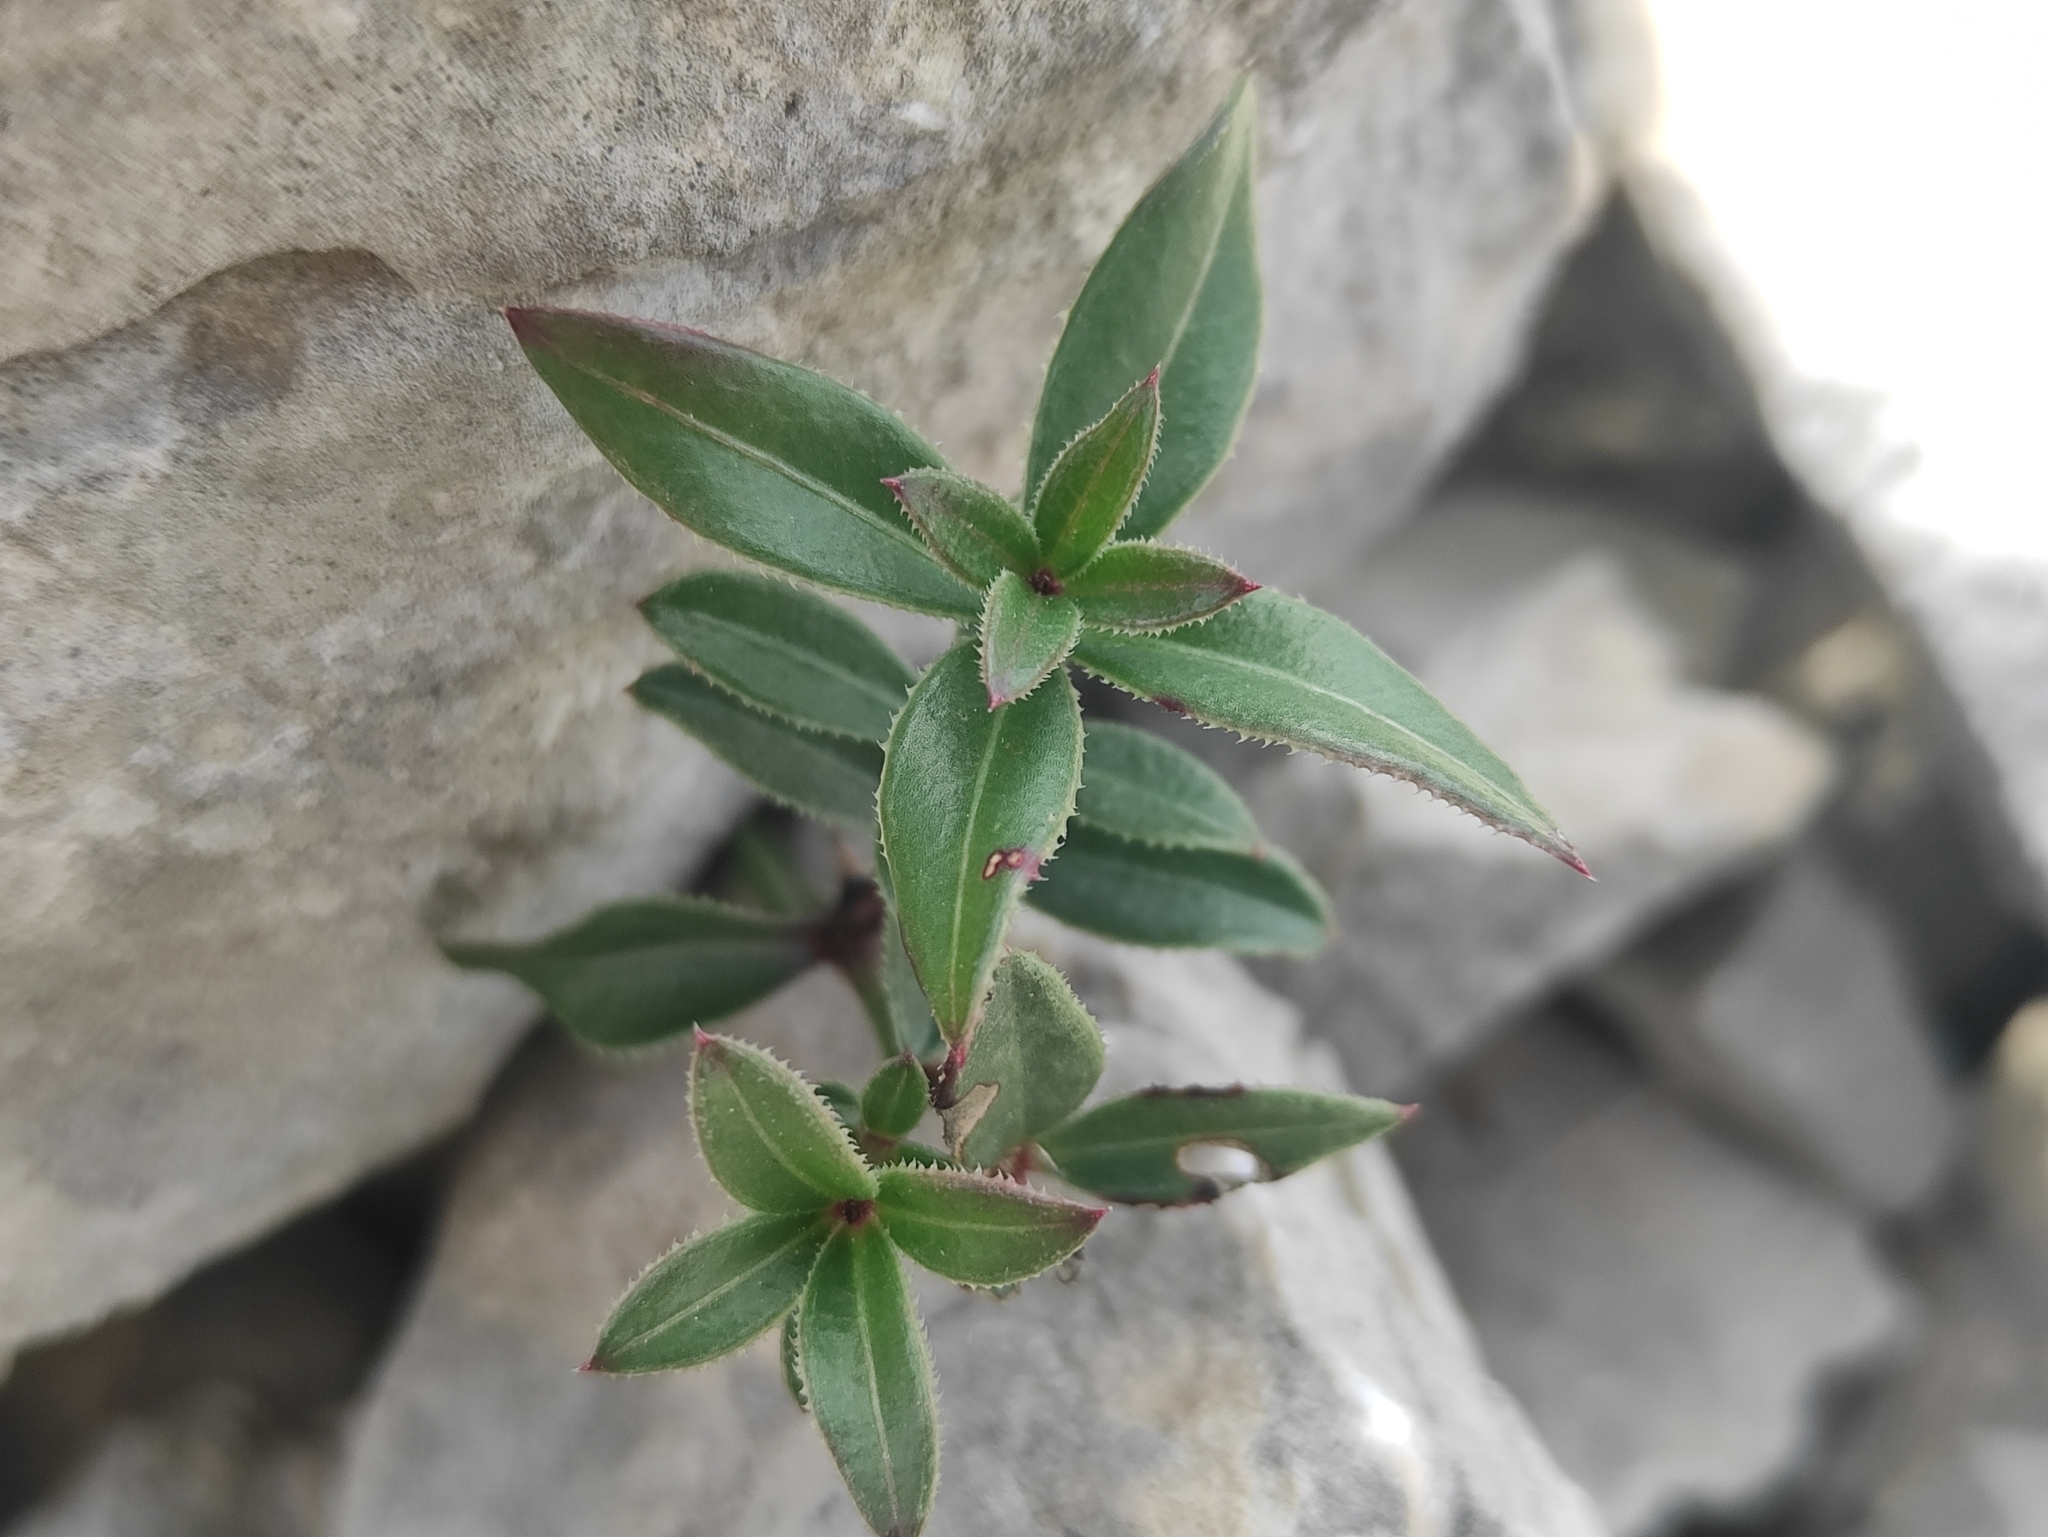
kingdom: Plantae
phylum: Tracheophyta
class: Magnoliopsida
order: Gentianales
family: Rubiaceae
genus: Rubia
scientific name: Rubia peregrina
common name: Wild madder
